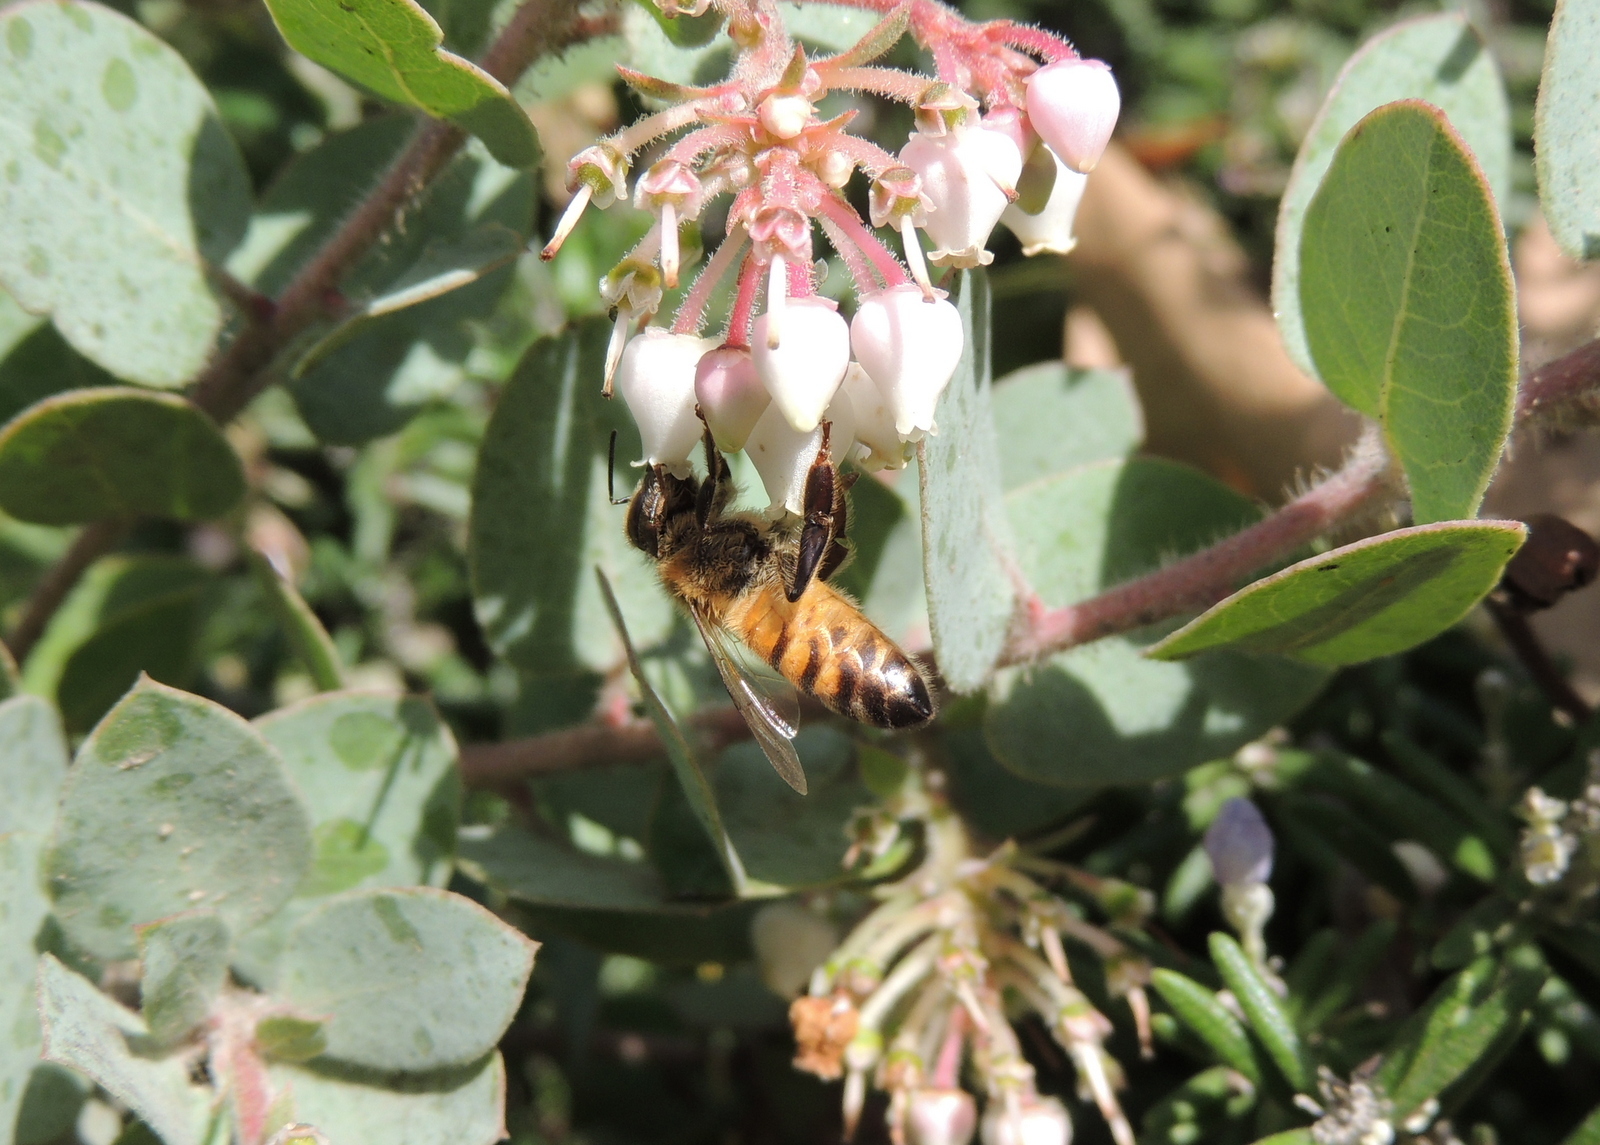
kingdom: Animalia
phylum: Arthropoda
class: Insecta
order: Hymenoptera
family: Apidae
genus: Apis
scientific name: Apis mellifera
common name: Honey bee
